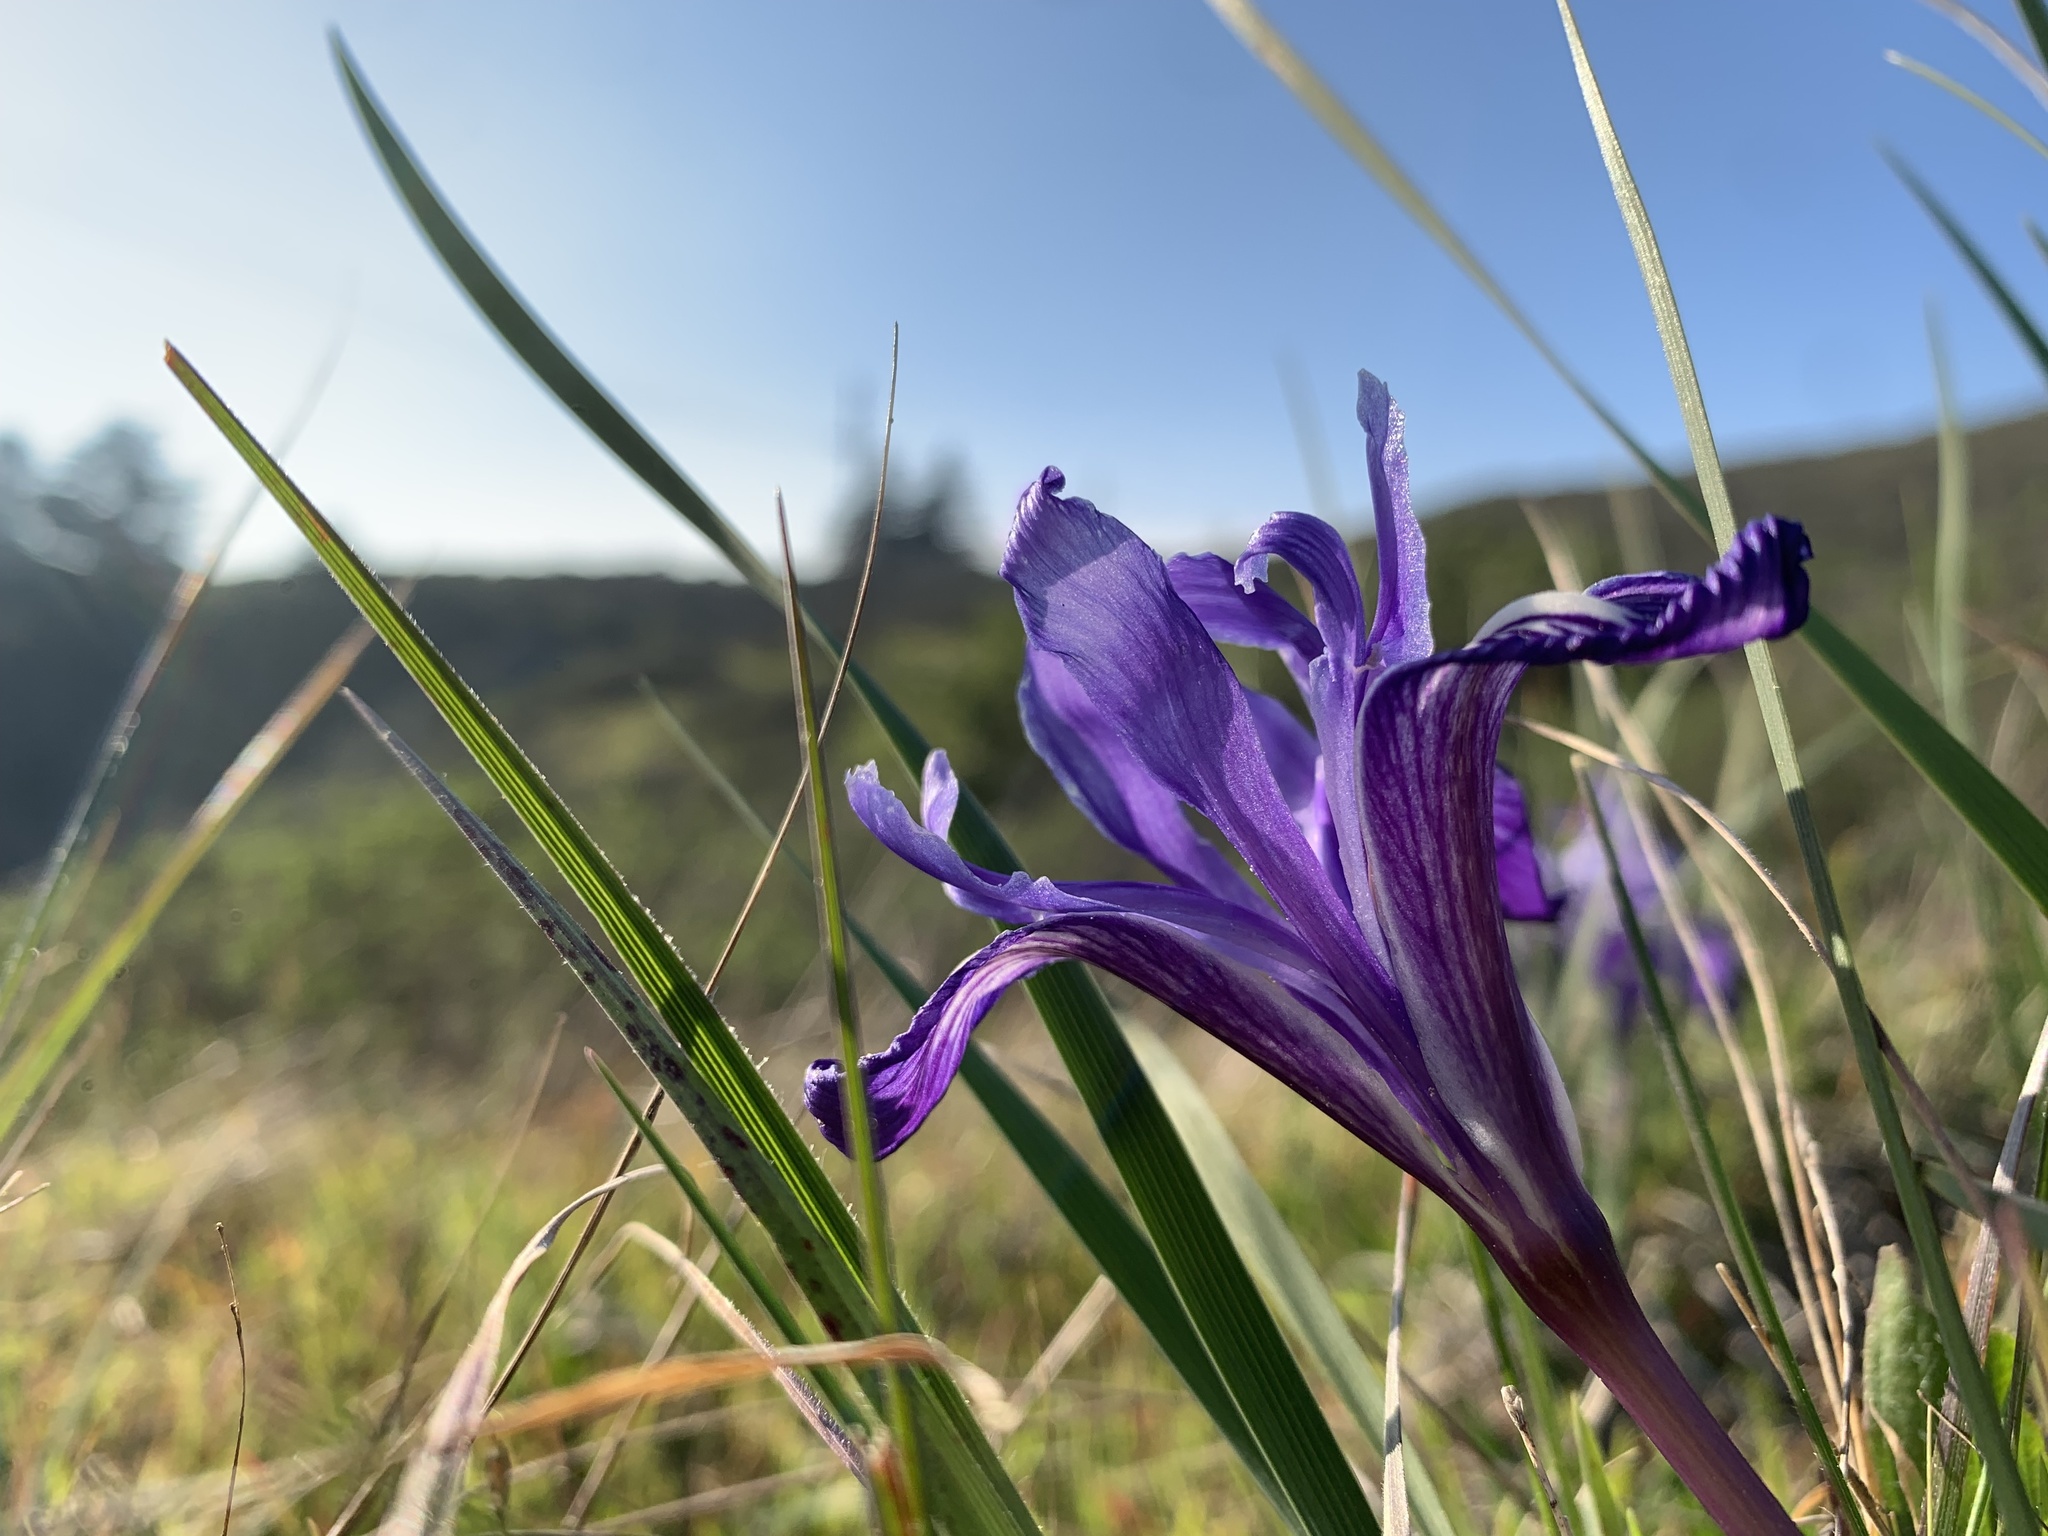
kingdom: Plantae
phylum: Tracheophyta
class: Liliopsida
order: Asparagales
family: Iridaceae
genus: Iris
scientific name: Iris macrosiphon
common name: Ground iris
